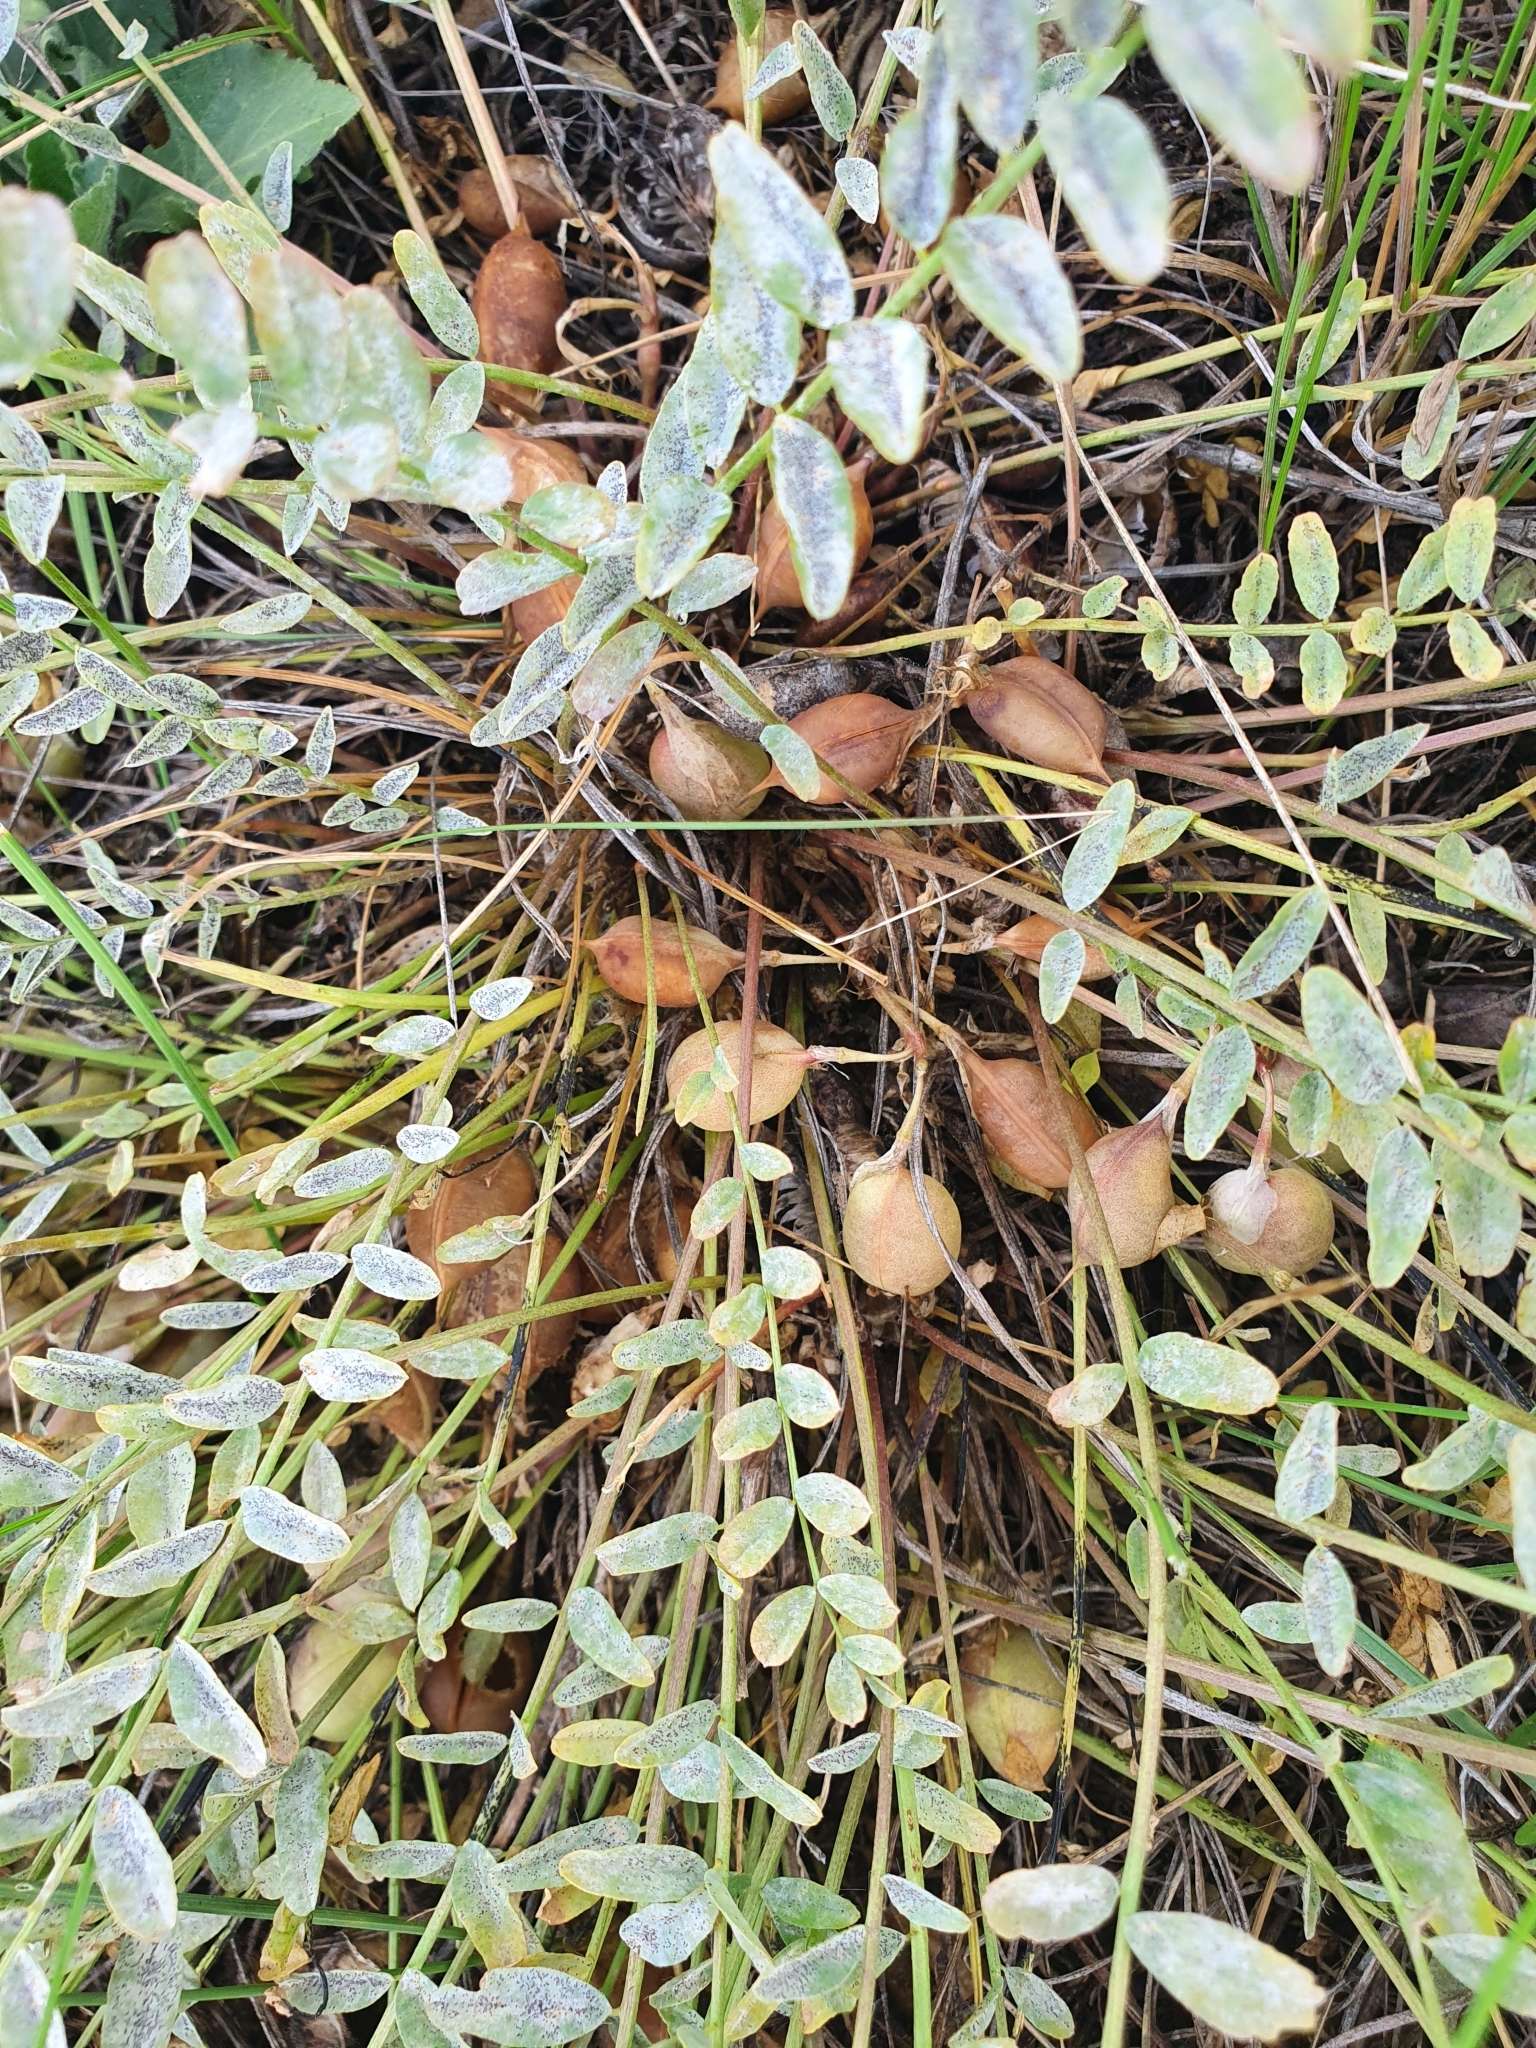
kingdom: Plantae
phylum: Tracheophyta
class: Magnoliopsida
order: Fabales
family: Fabaceae
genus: Astragalus
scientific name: Astragalus wolgensis
